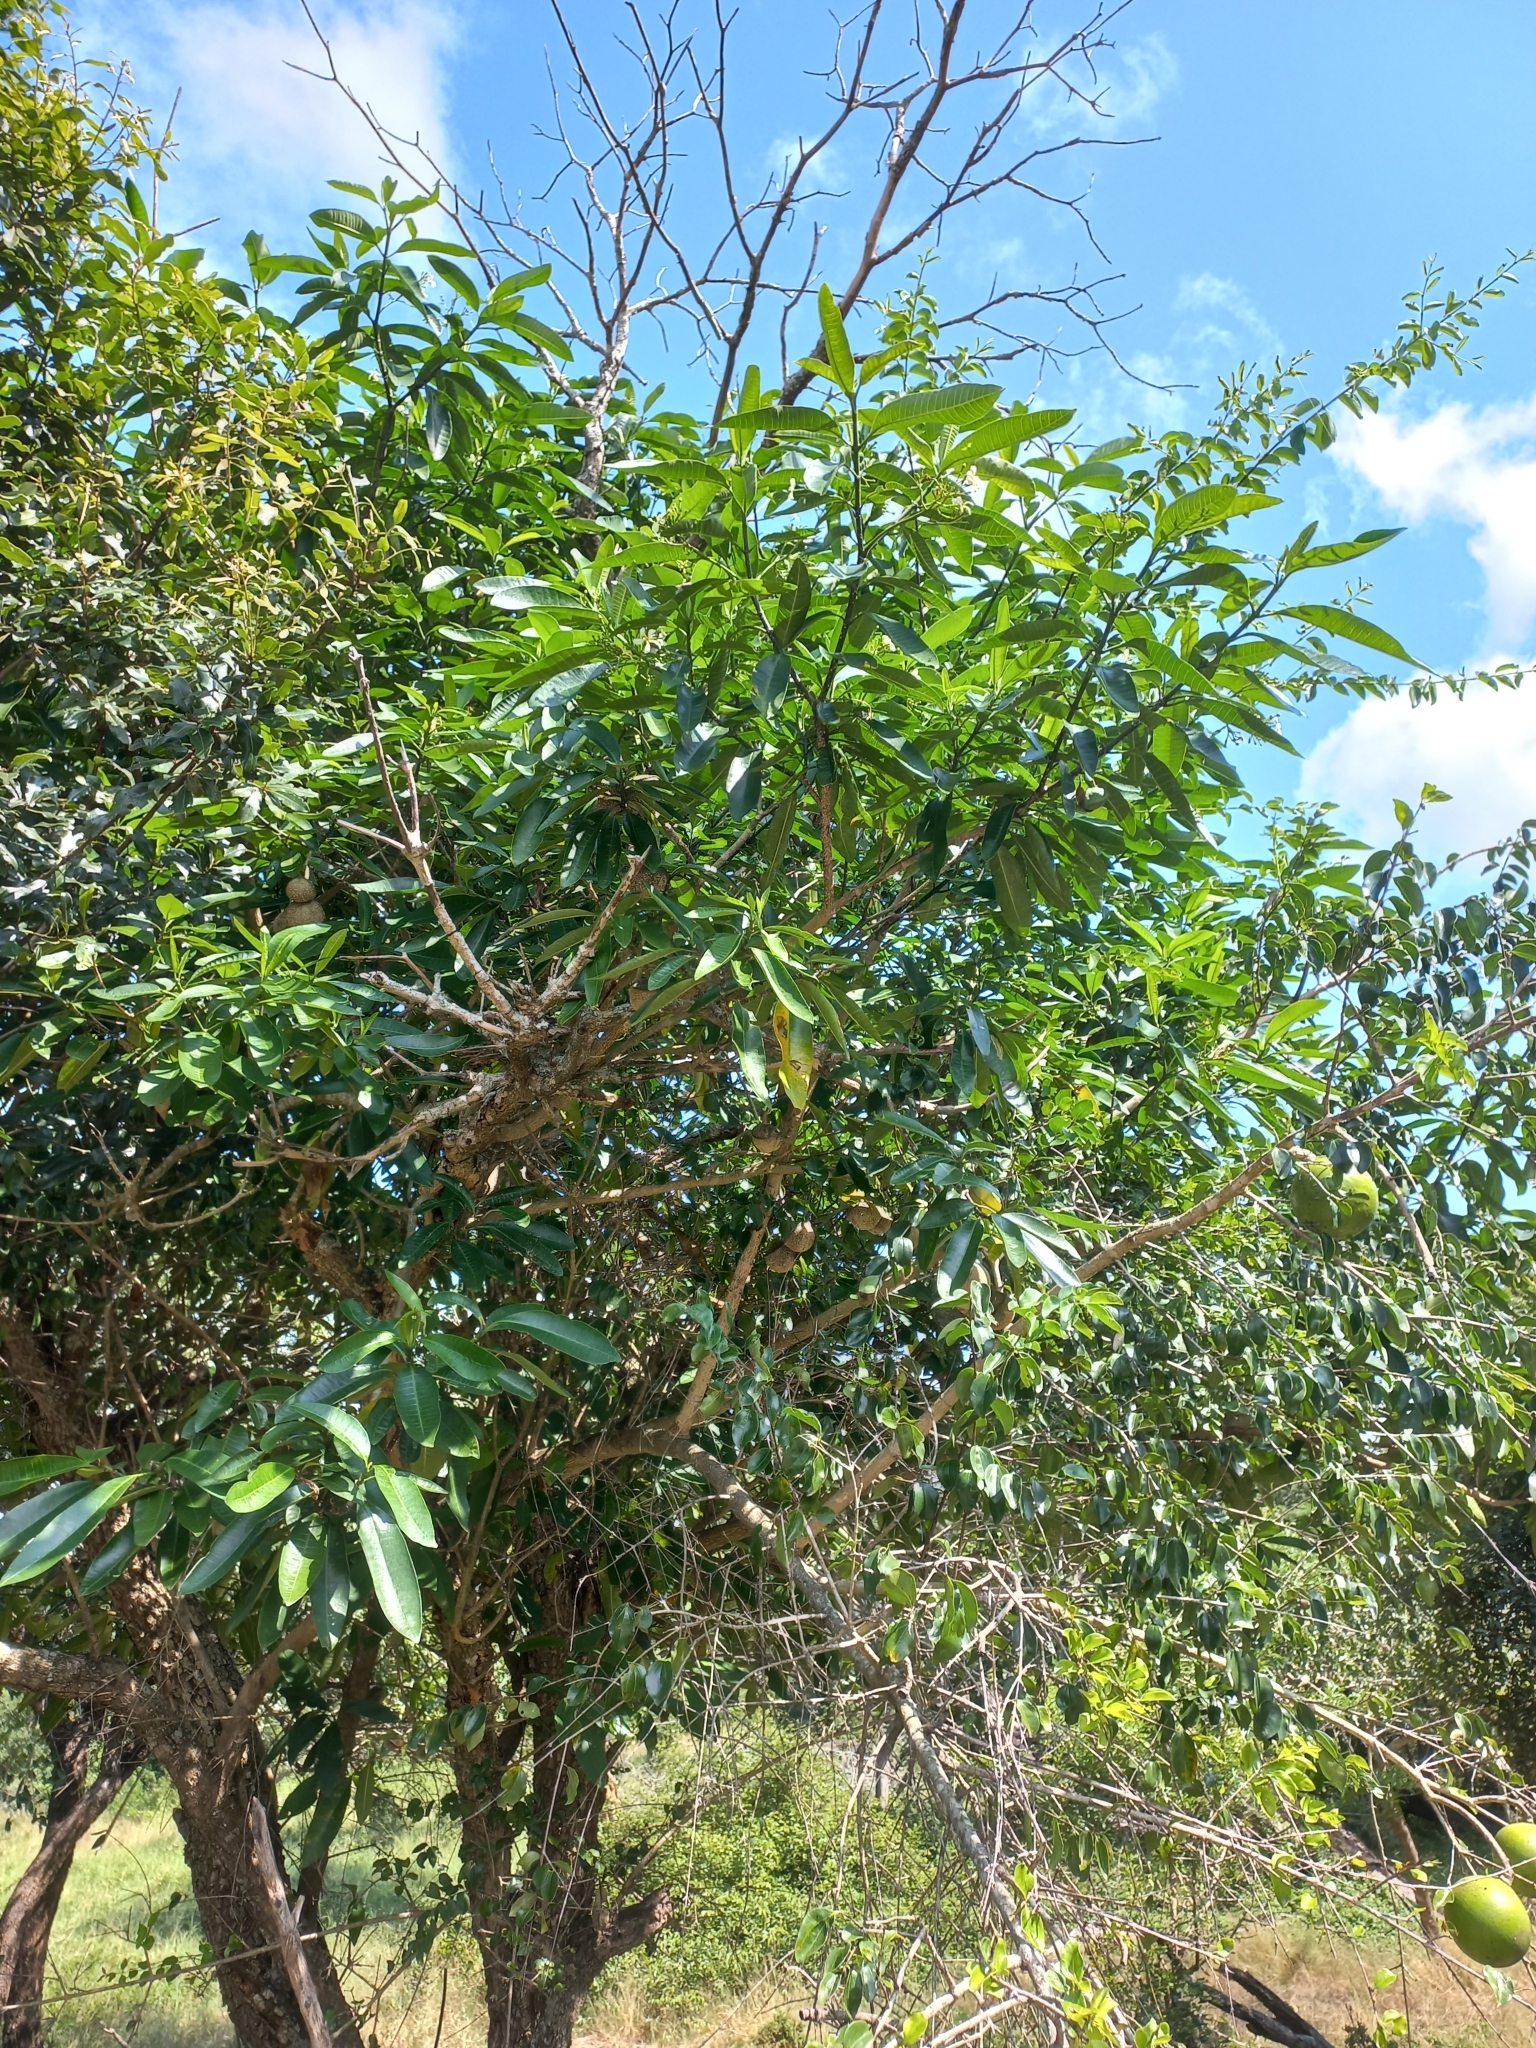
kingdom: Plantae
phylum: Tracheophyta
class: Magnoliopsida
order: Gentianales
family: Apocynaceae
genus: Tabernaemontana
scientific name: Tabernaemontana elegans
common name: Toadtree
